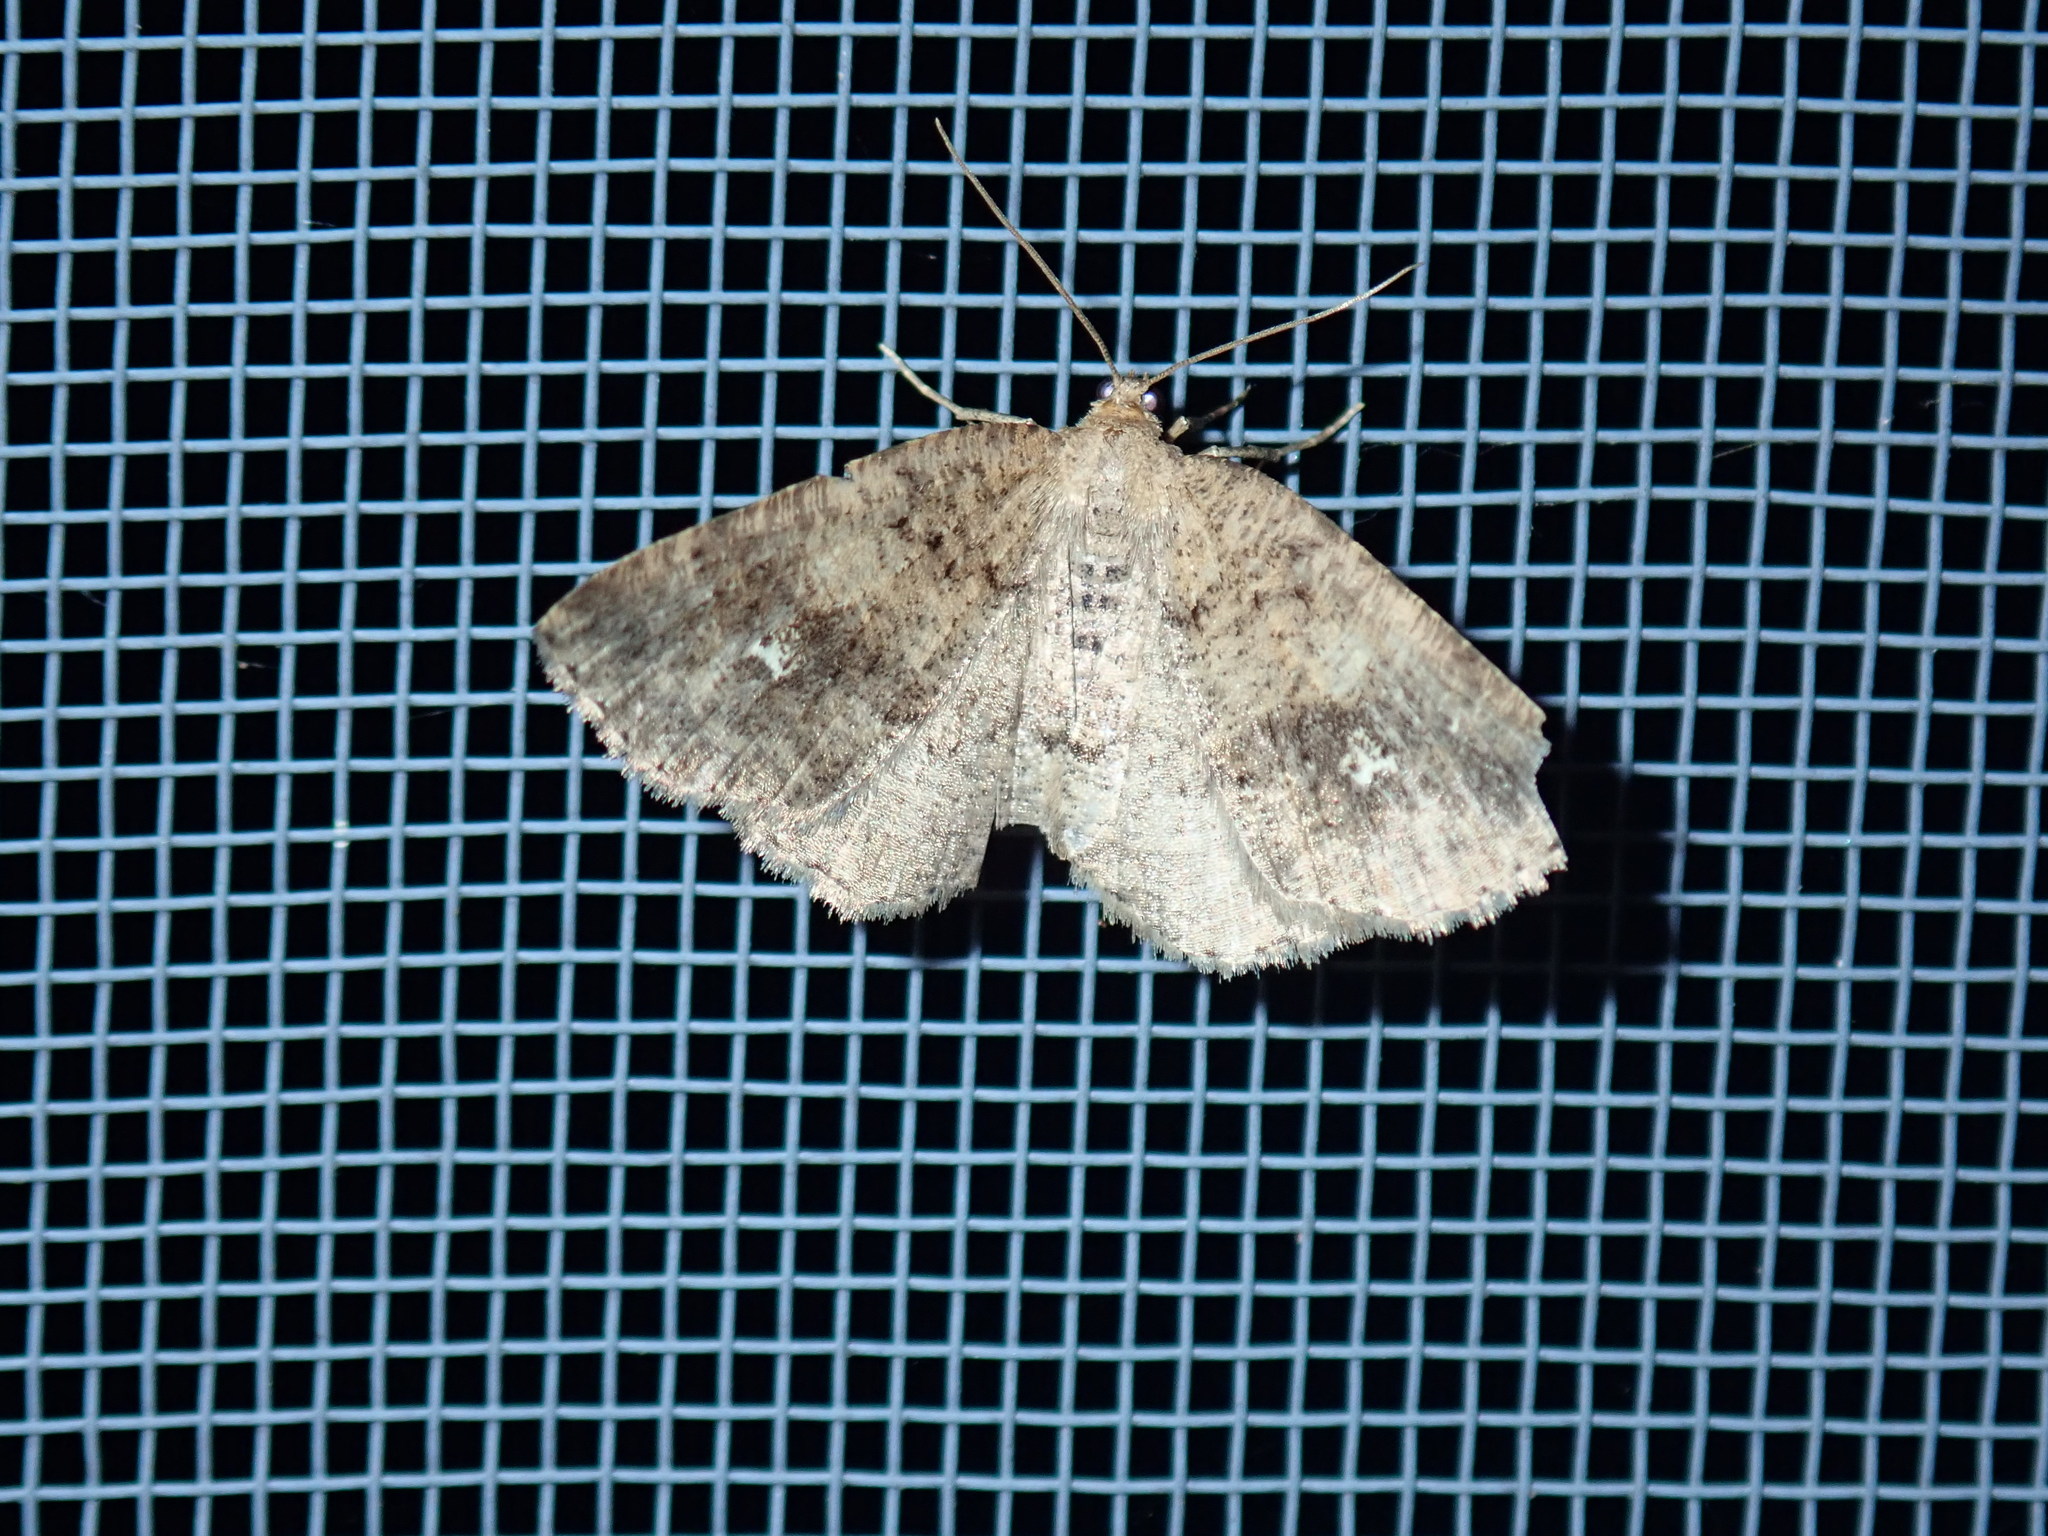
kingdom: Animalia
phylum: Arthropoda
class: Insecta
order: Lepidoptera
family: Geometridae
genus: Homochlodes
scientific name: Homochlodes fritillaria
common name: Pale homochlodes
